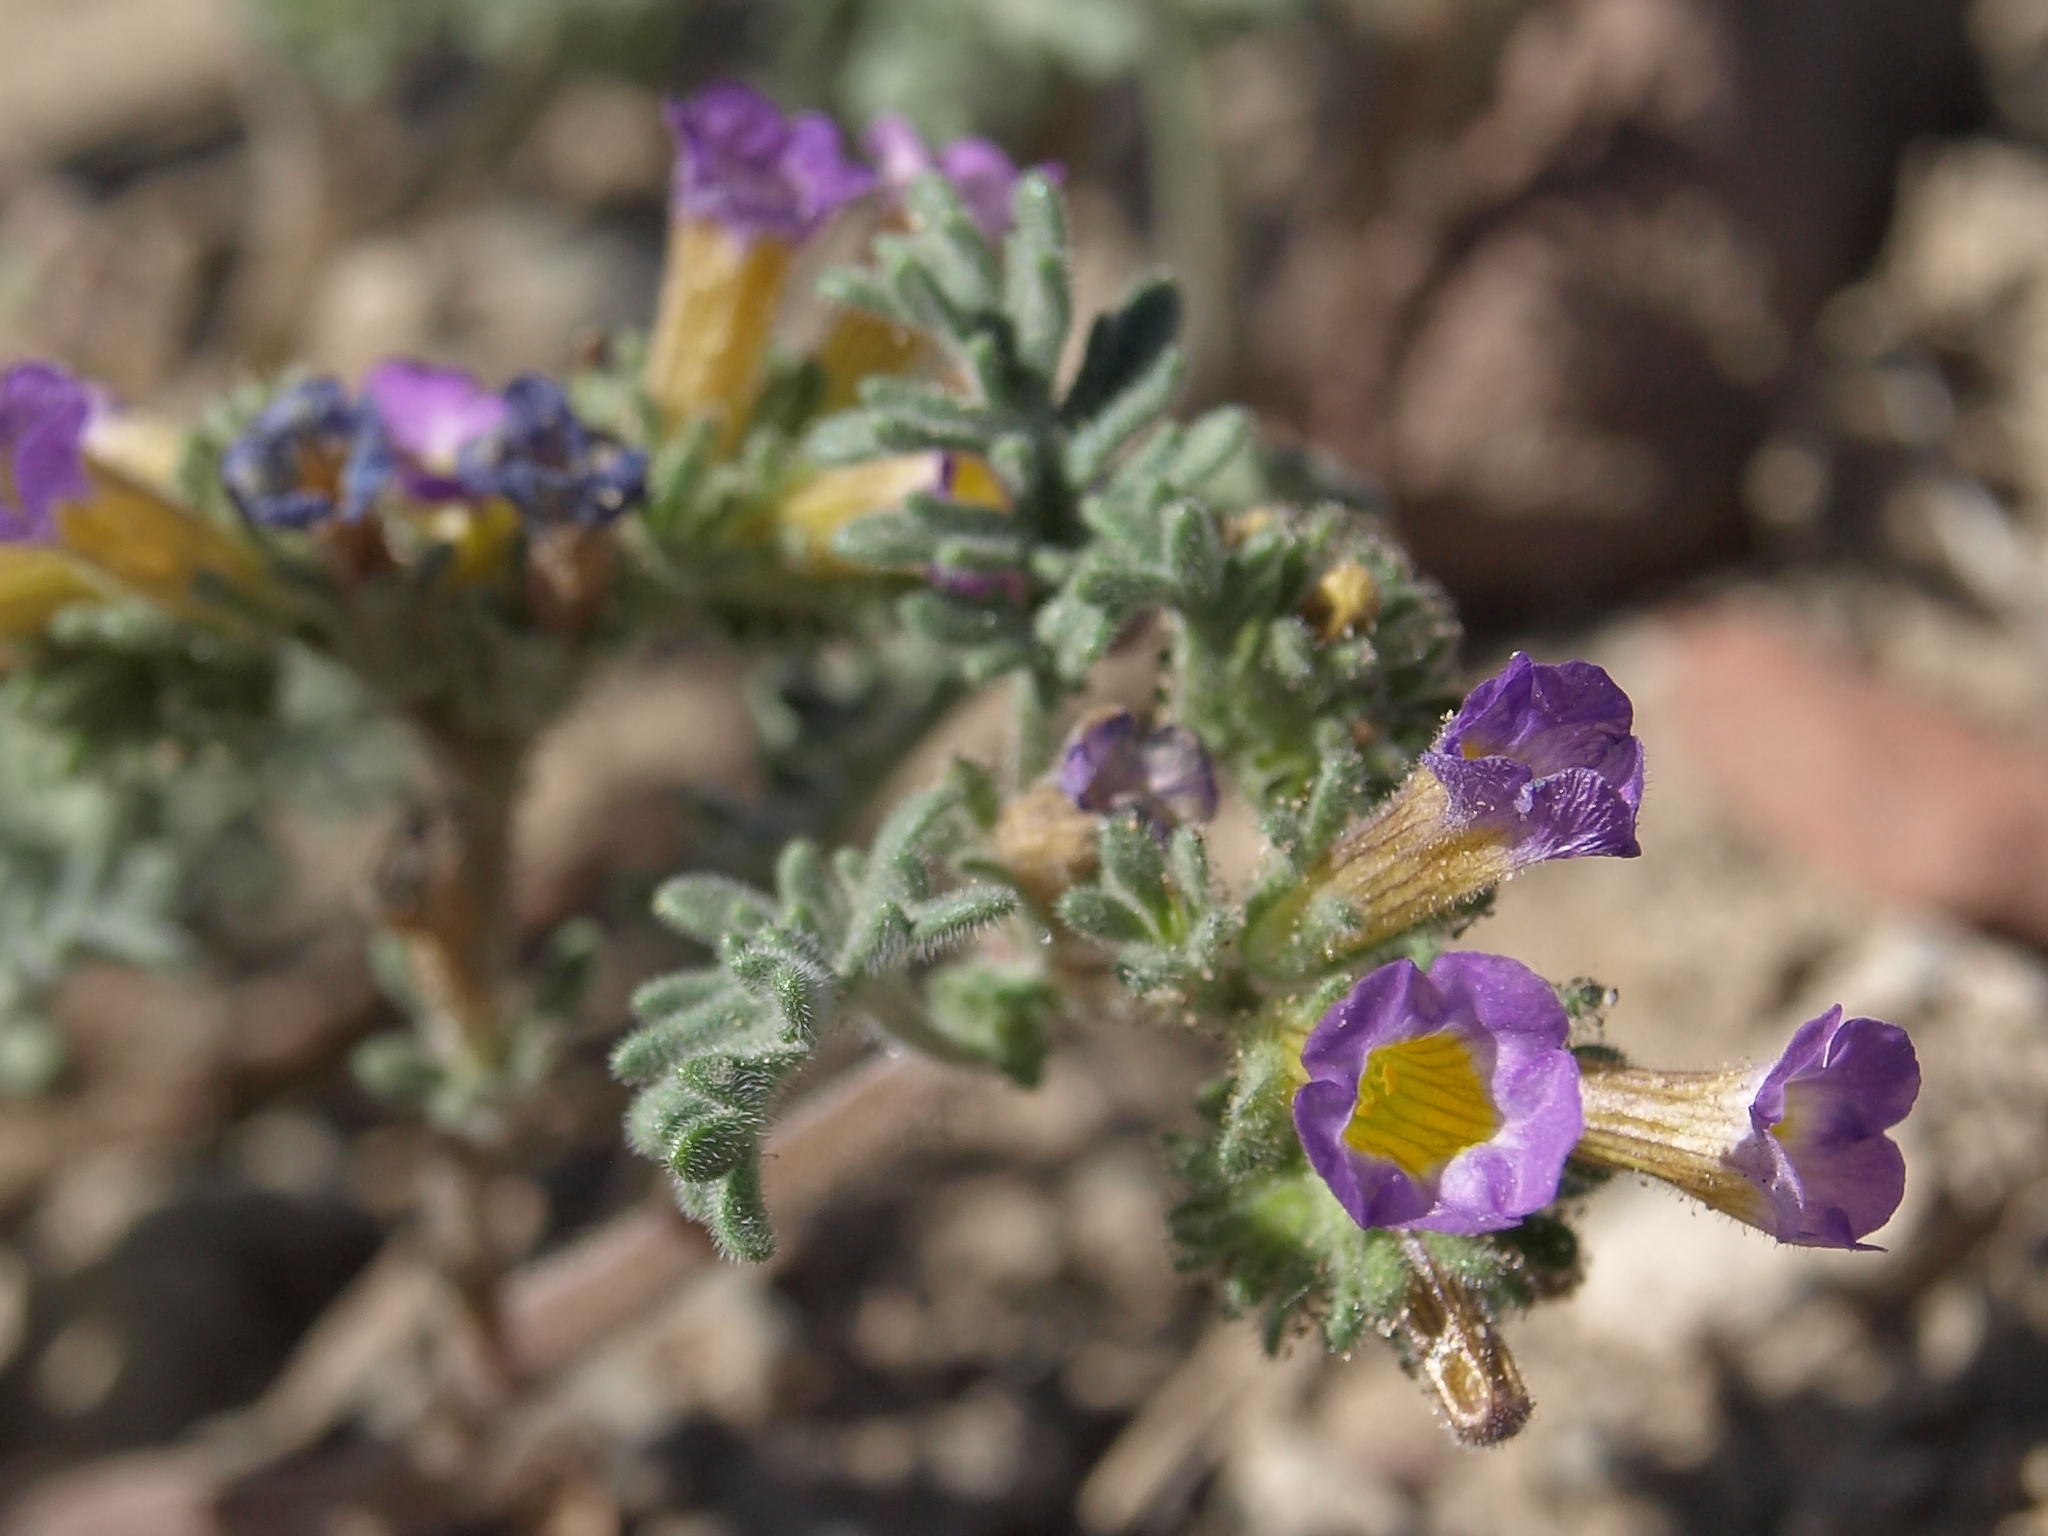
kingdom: Plantae
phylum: Tracheophyta
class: Magnoliopsida
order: Boraginales
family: Hydrophyllaceae
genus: Phacelia
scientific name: Phacelia bicolor
